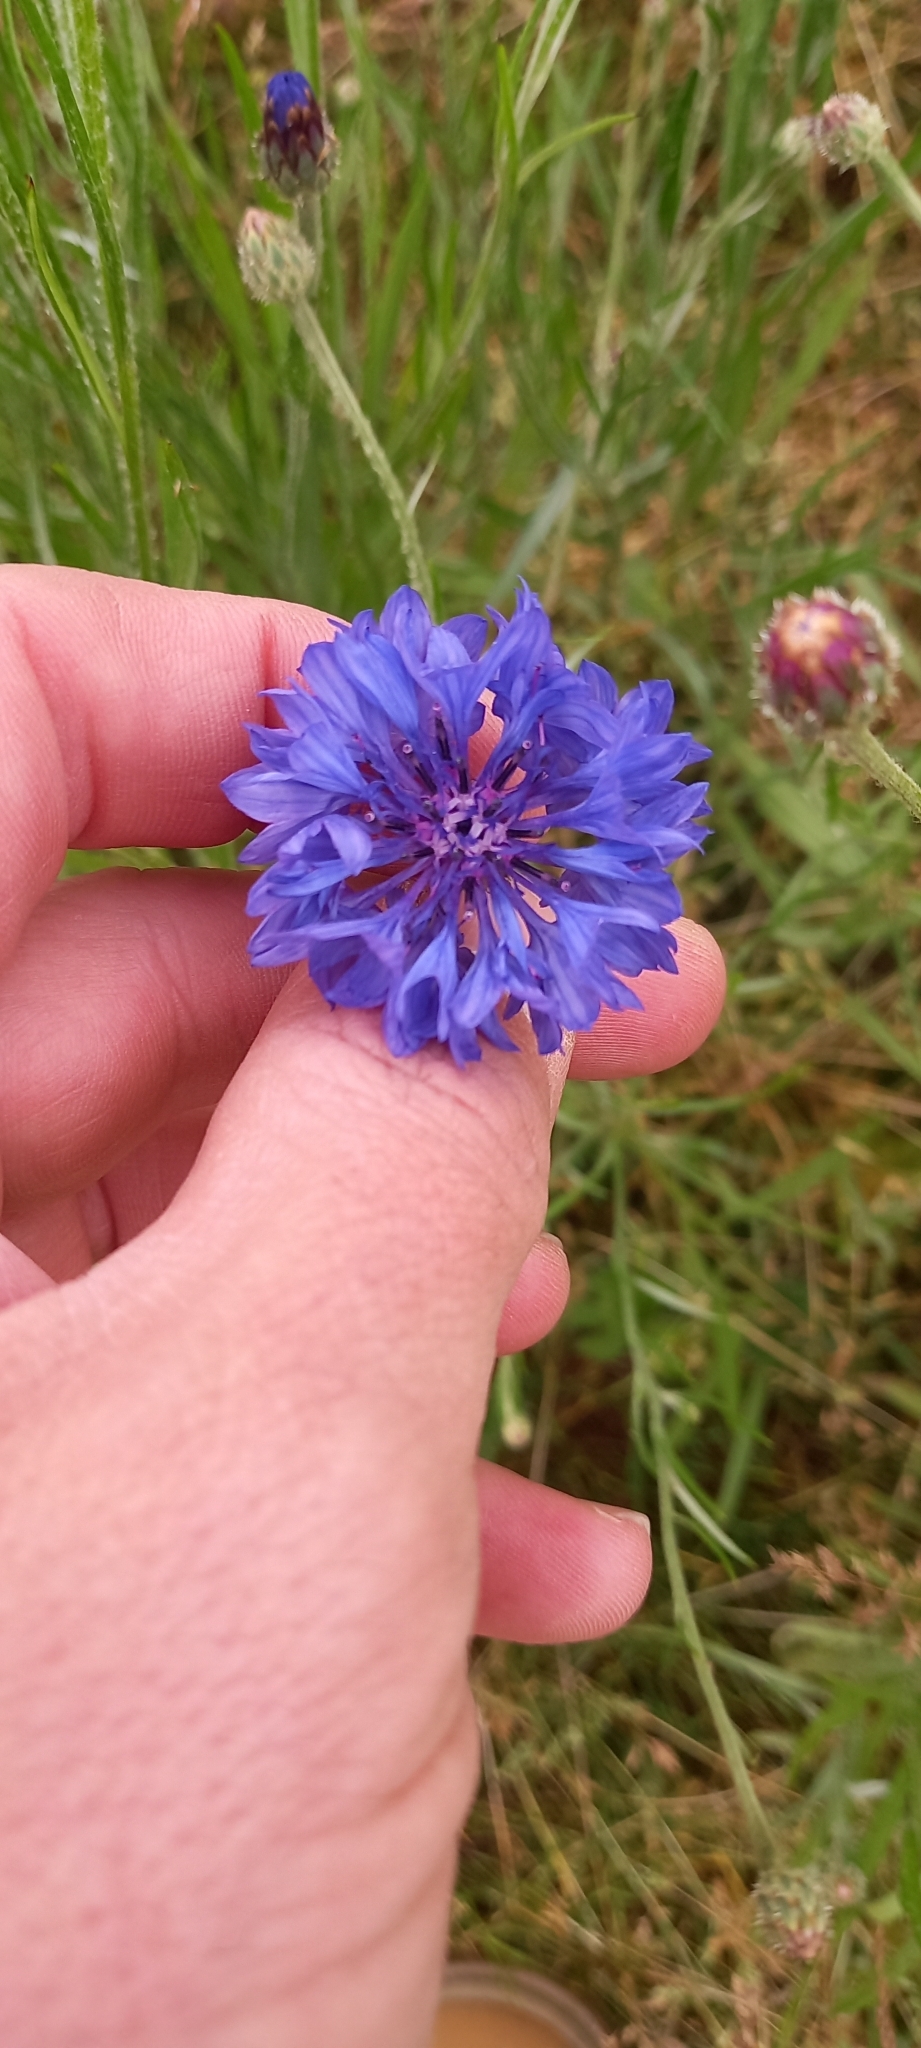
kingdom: Plantae
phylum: Tracheophyta
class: Magnoliopsida
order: Asterales
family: Asteraceae
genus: Centaurea
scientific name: Centaurea cyanus
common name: Cornflower
